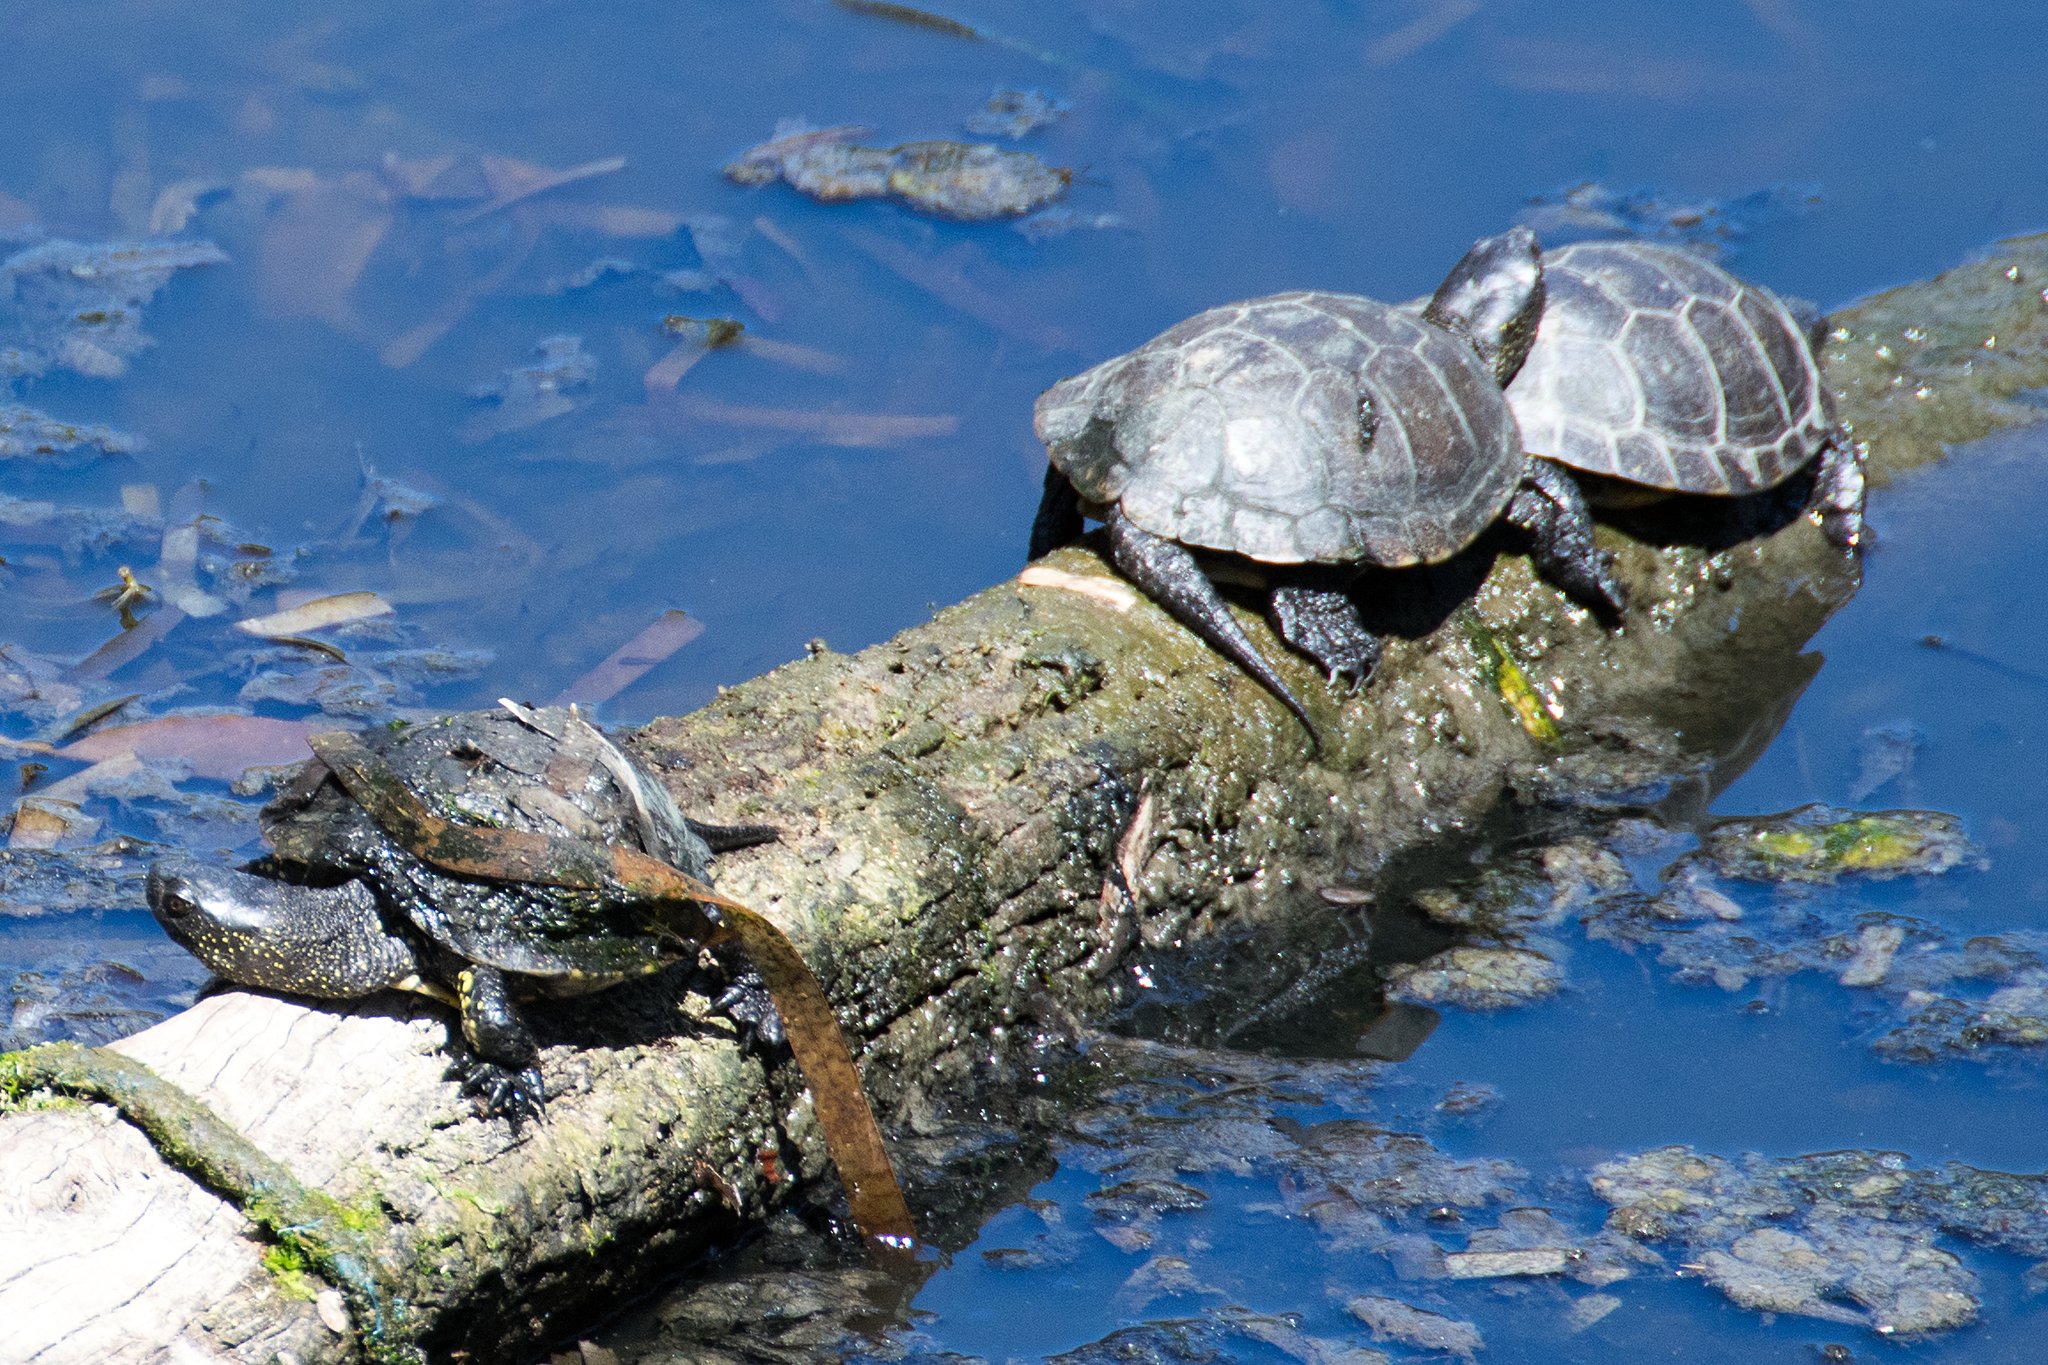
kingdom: Animalia
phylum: Chordata
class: Testudines
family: Emydidae
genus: Emys
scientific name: Emys orbicularis
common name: European pond turtle
